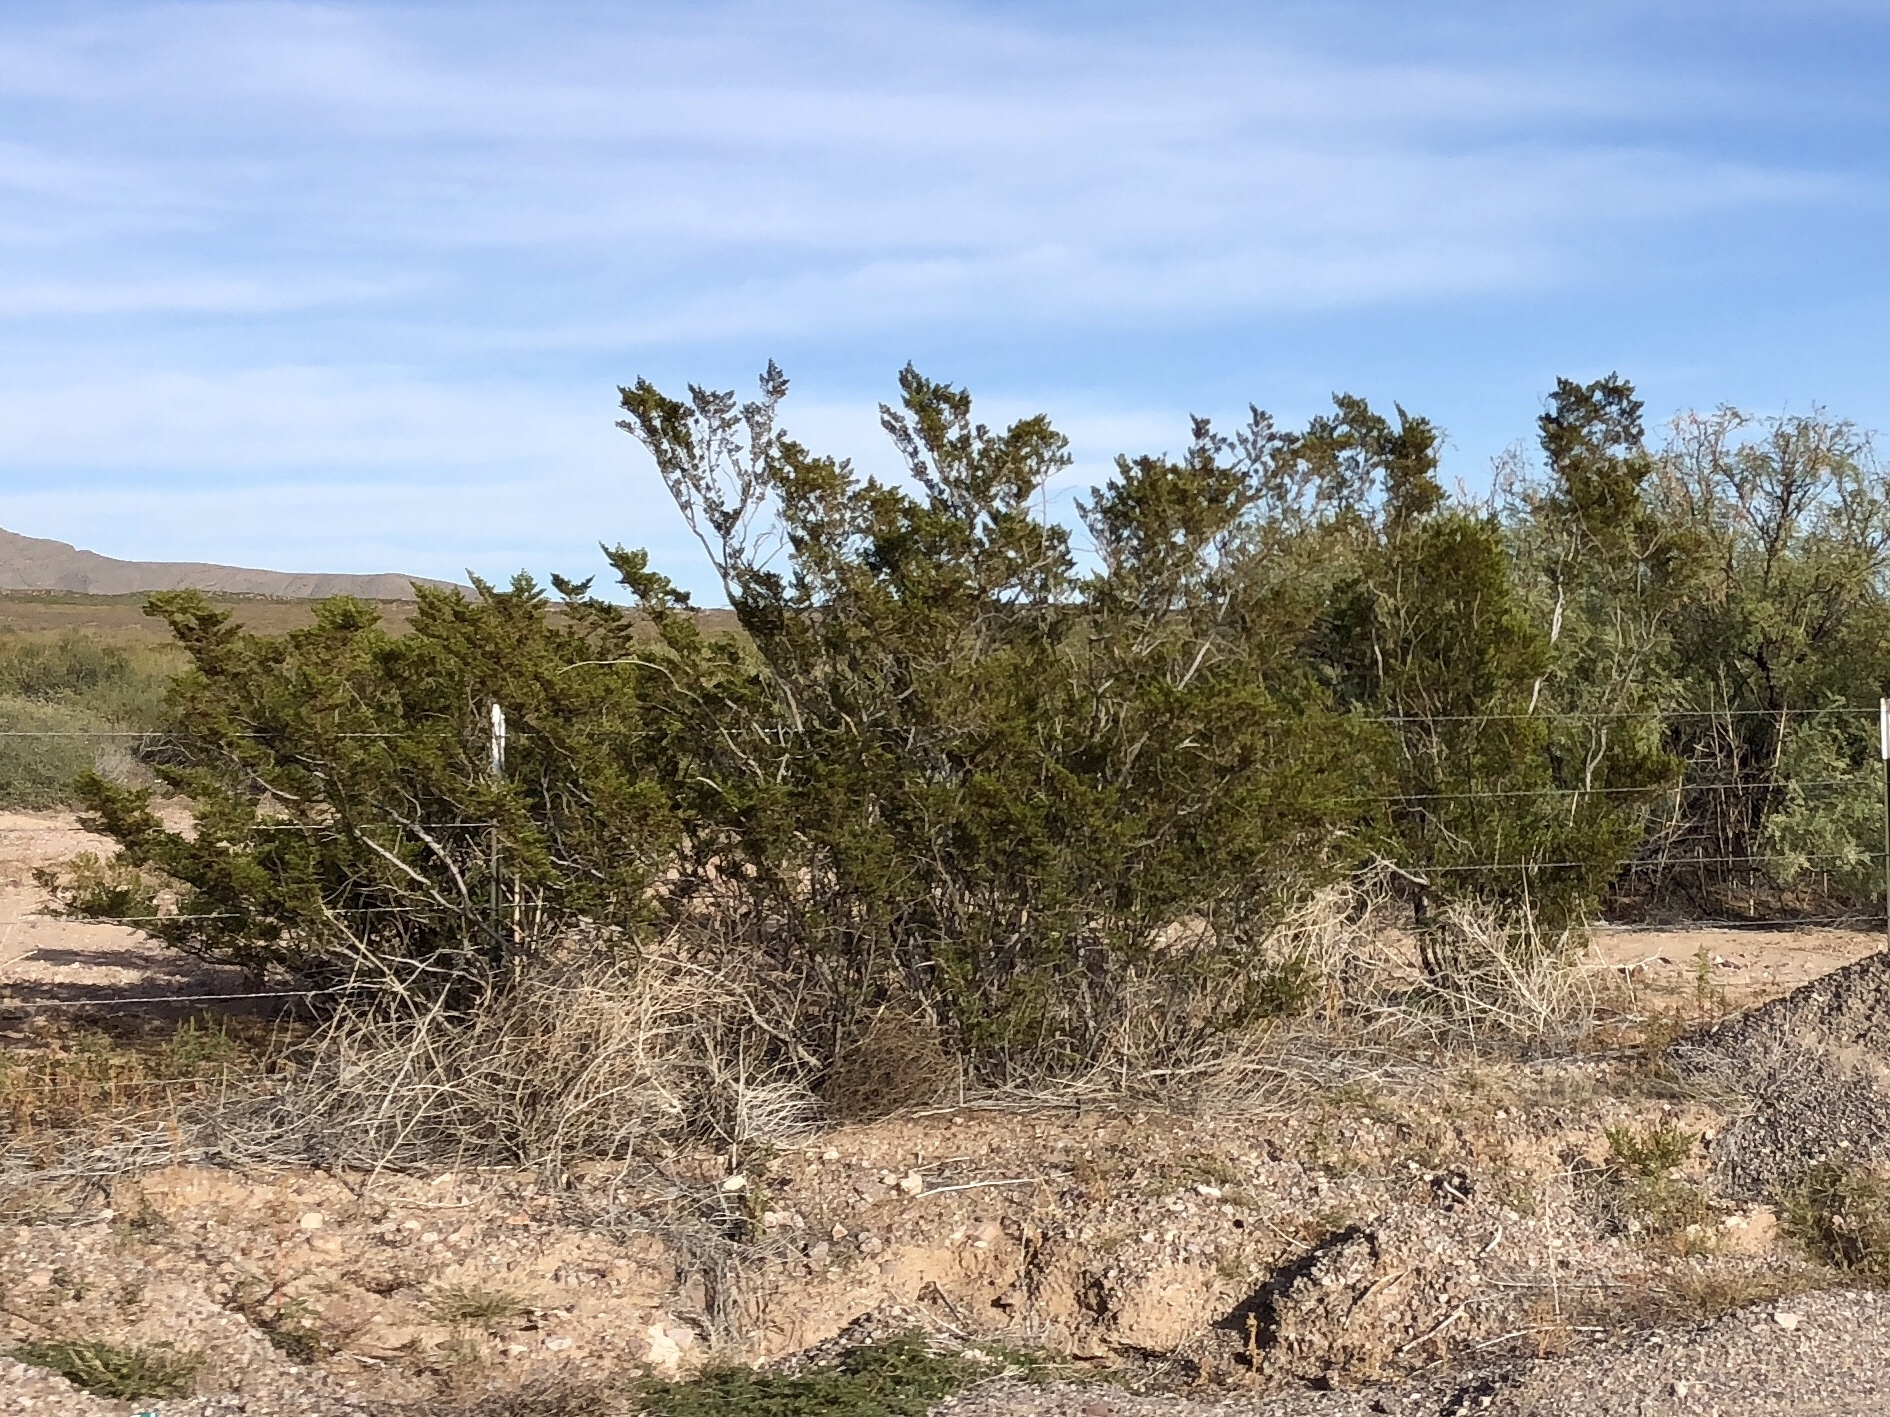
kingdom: Plantae
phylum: Tracheophyta
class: Magnoliopsida
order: Zygophyllales
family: Zygophyllaceae
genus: Larrea
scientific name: Larrea tridentata
